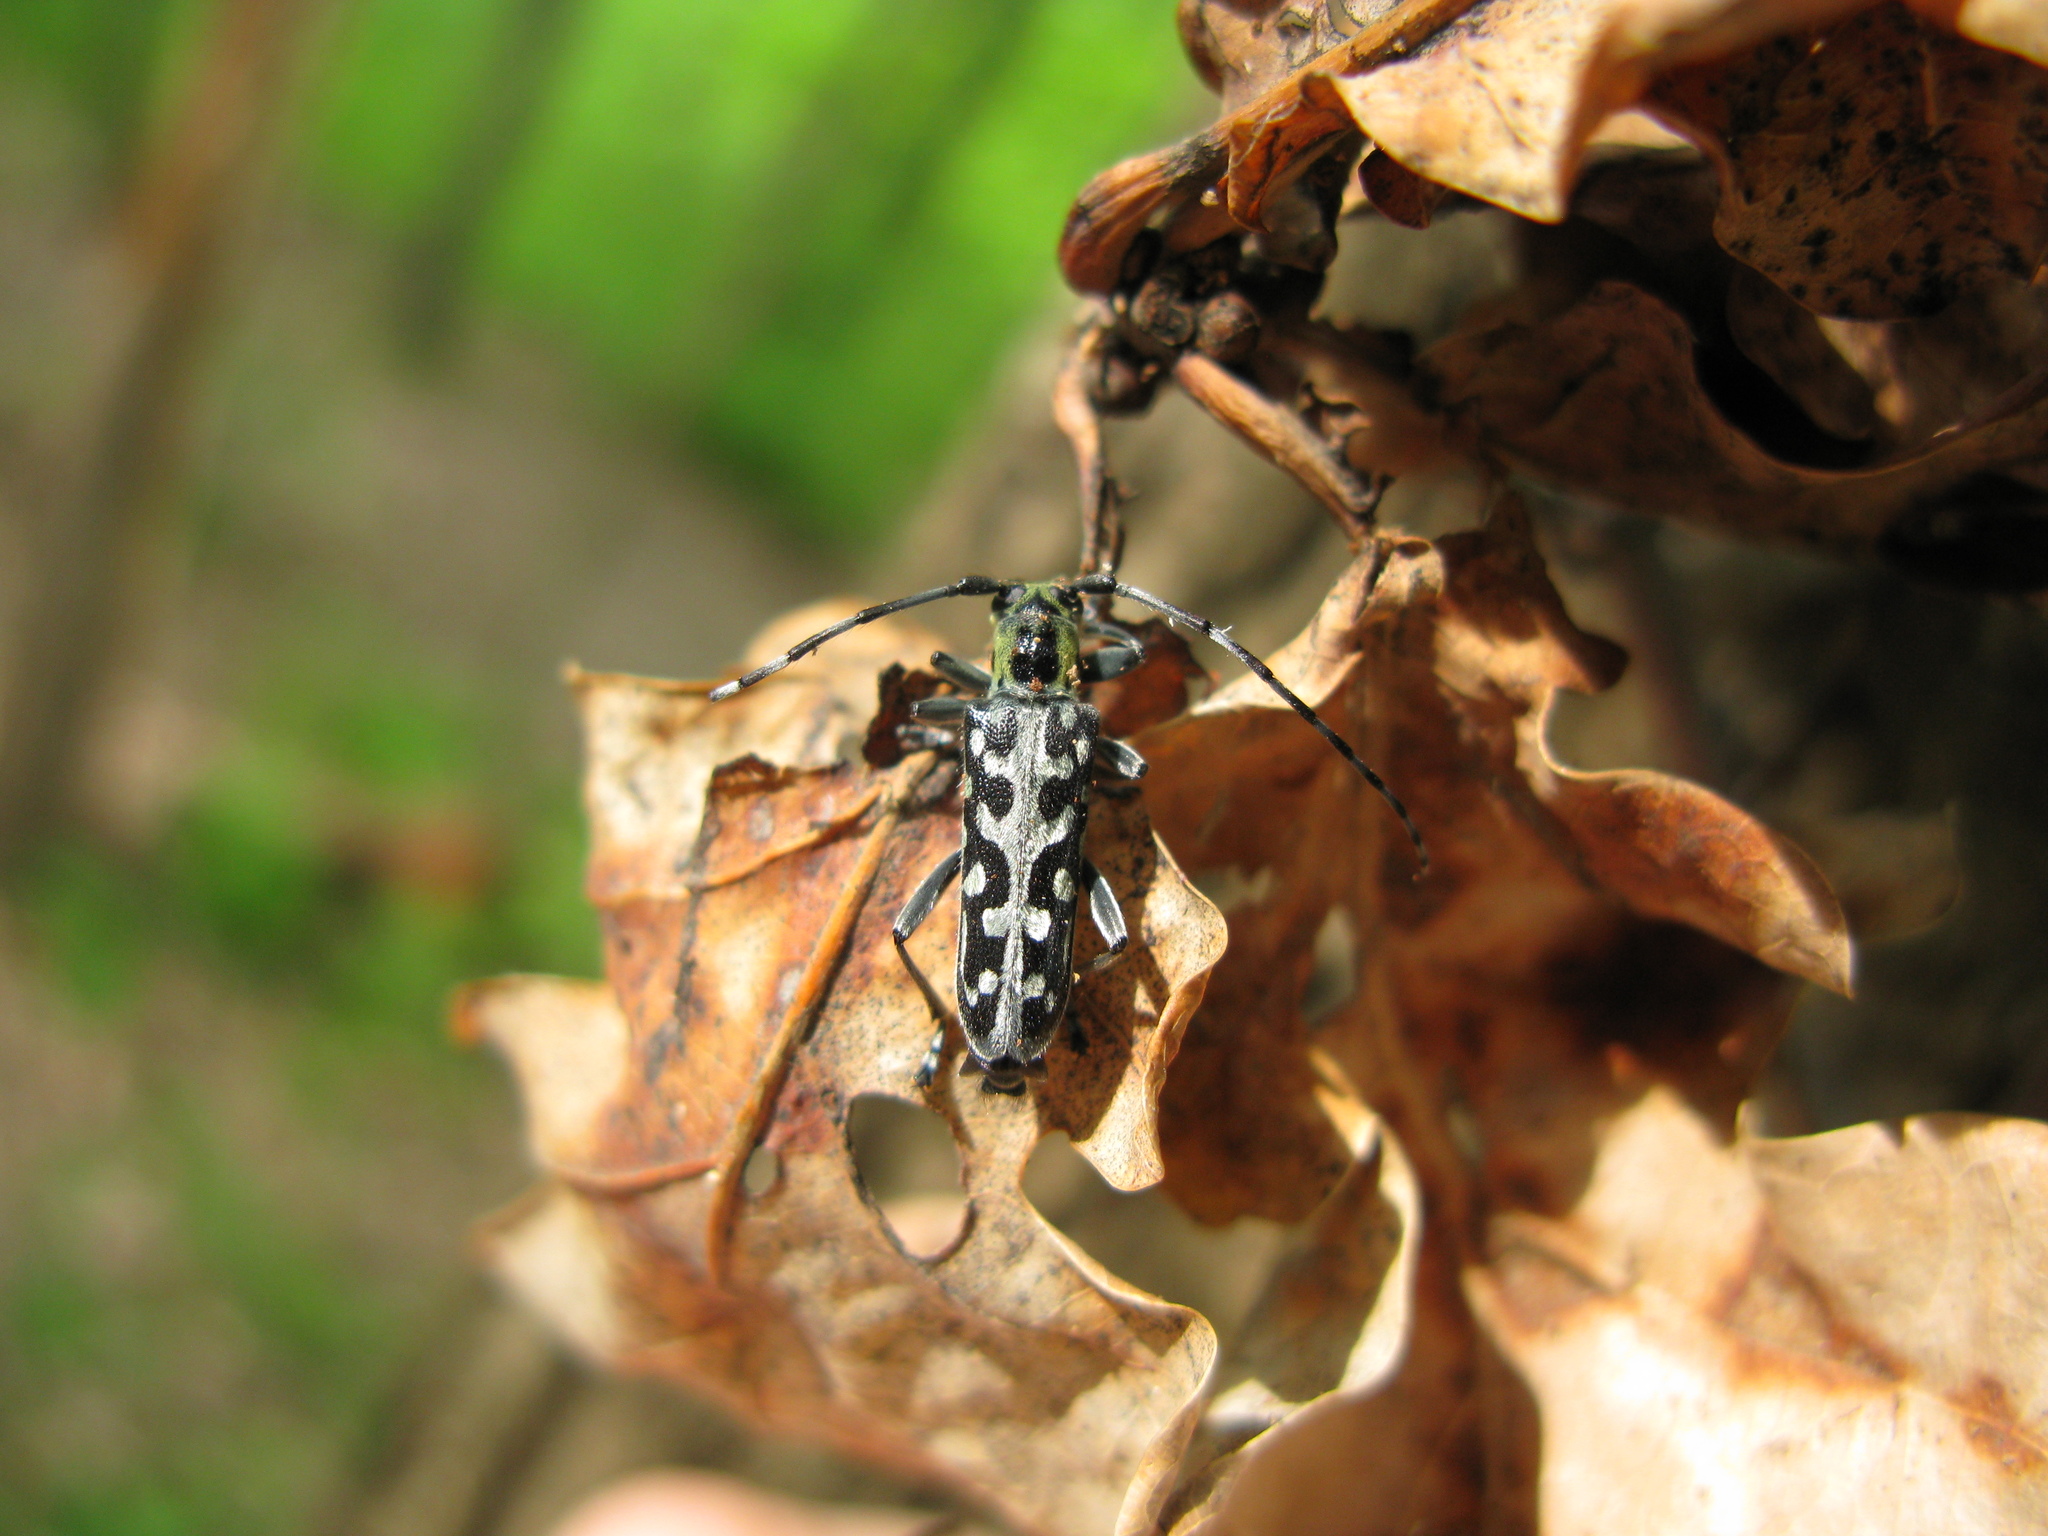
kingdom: Animalia
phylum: Arthropoda
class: Insecta
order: Coleoptera
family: Cerambycidae
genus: Saperda
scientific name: Saperda scalaris
